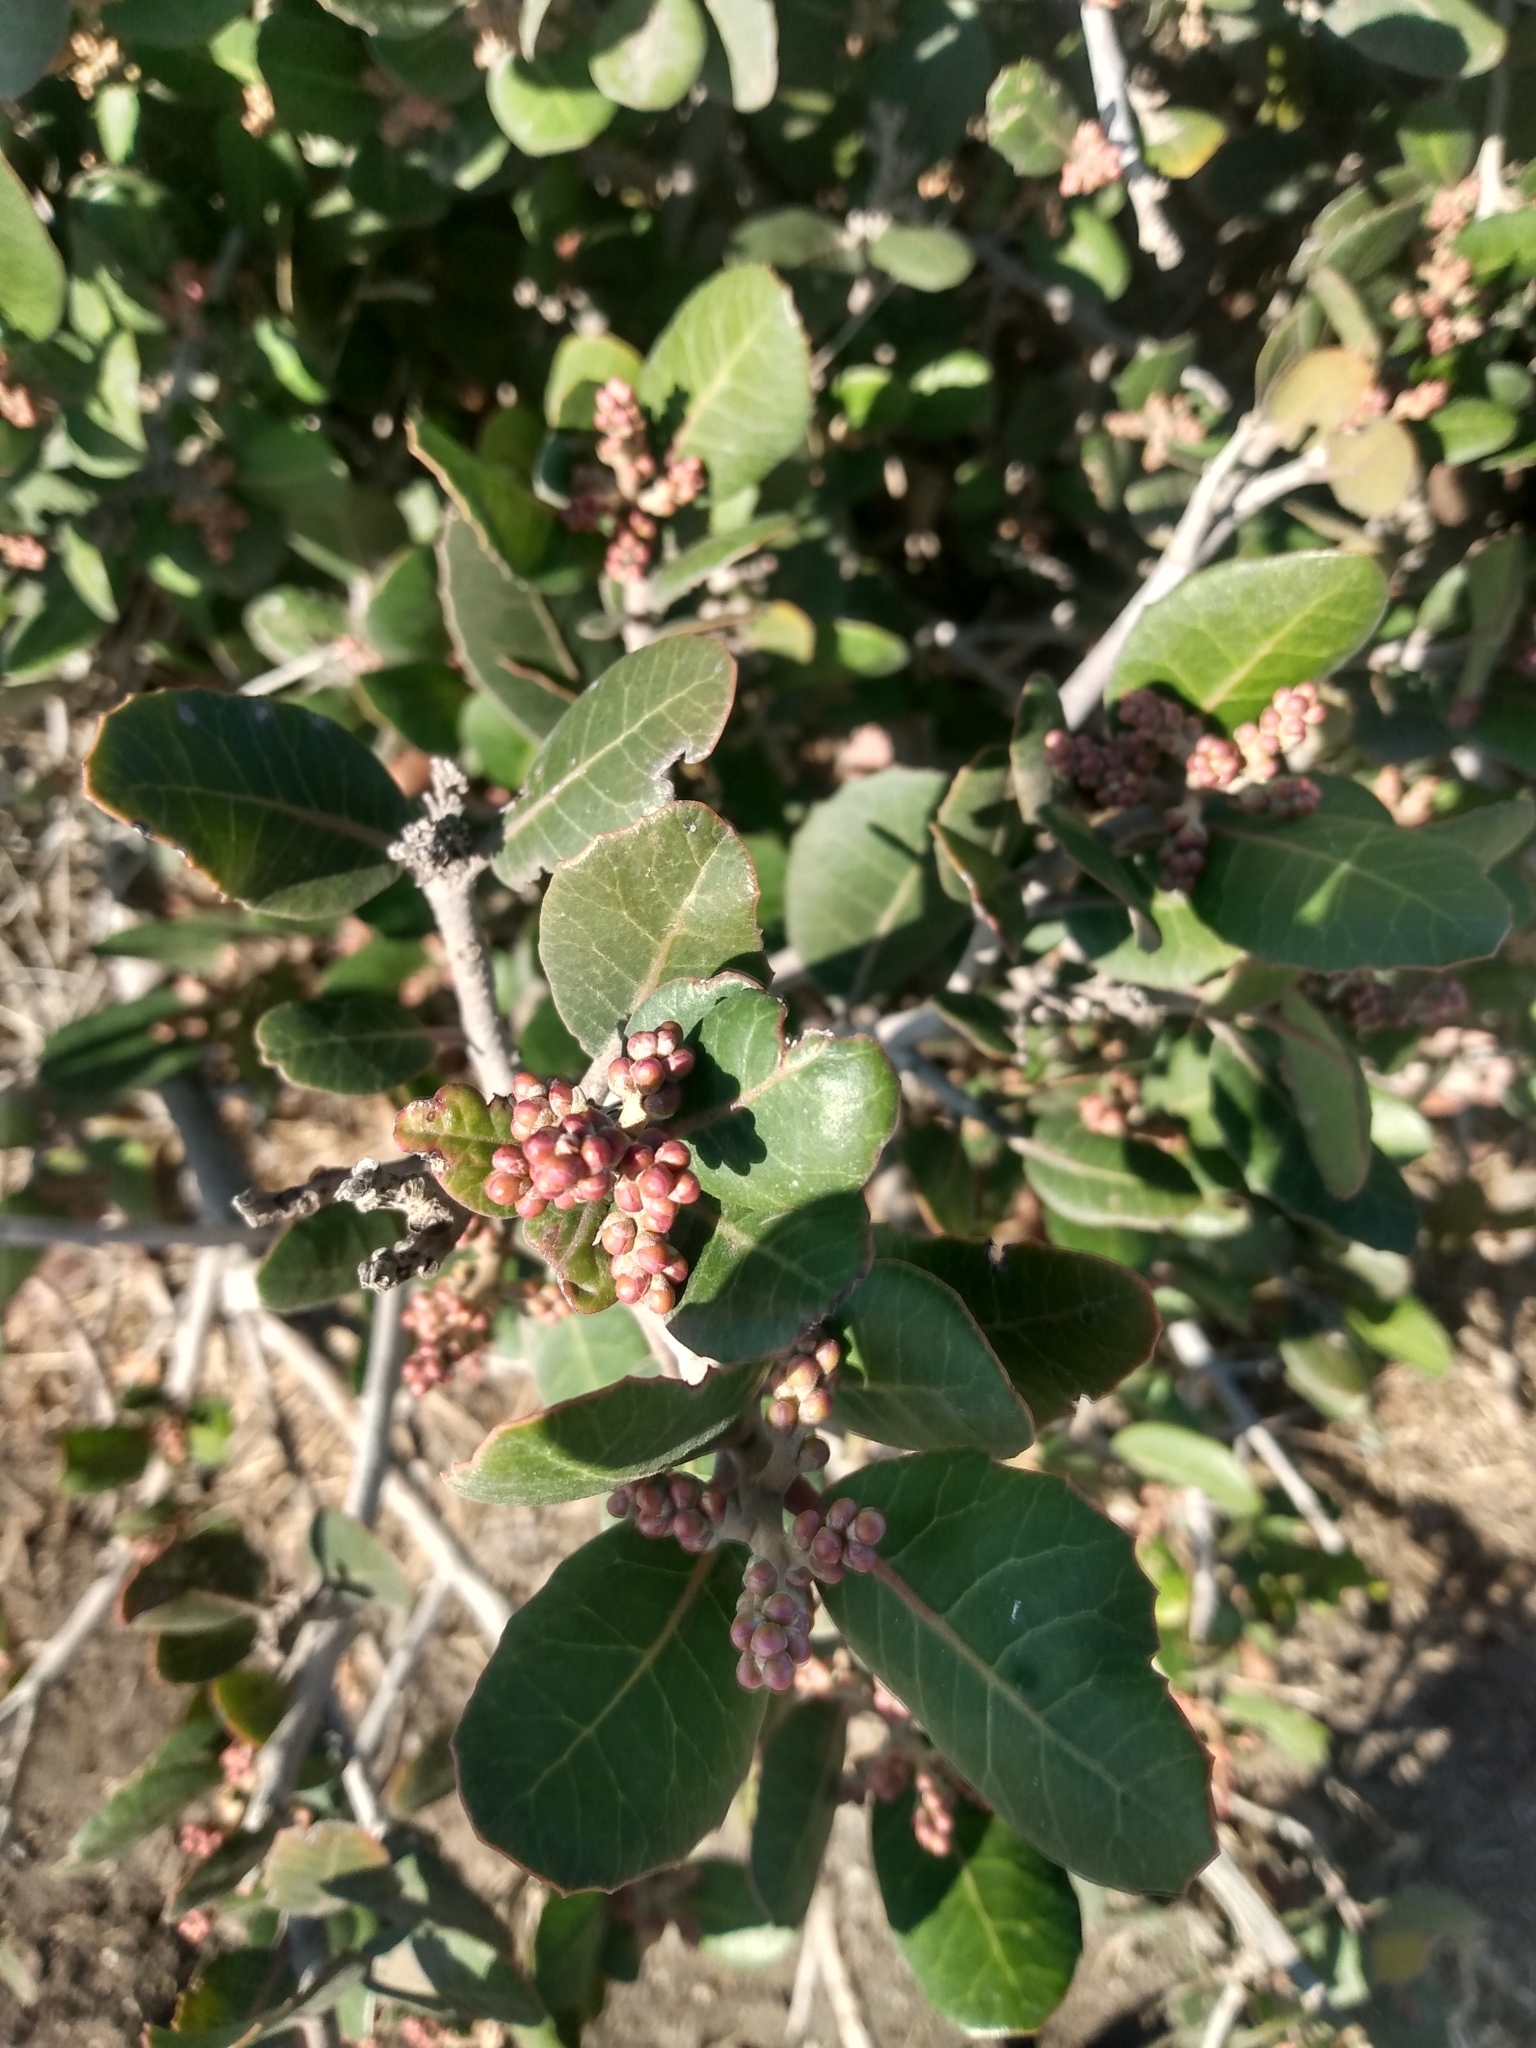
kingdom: Plantae
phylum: Tracheophyta
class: Magnoliopsida
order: Sapindales
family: Anacardiaceae
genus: Rhus
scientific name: Rhus integrifolia
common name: Lemonade sumac
